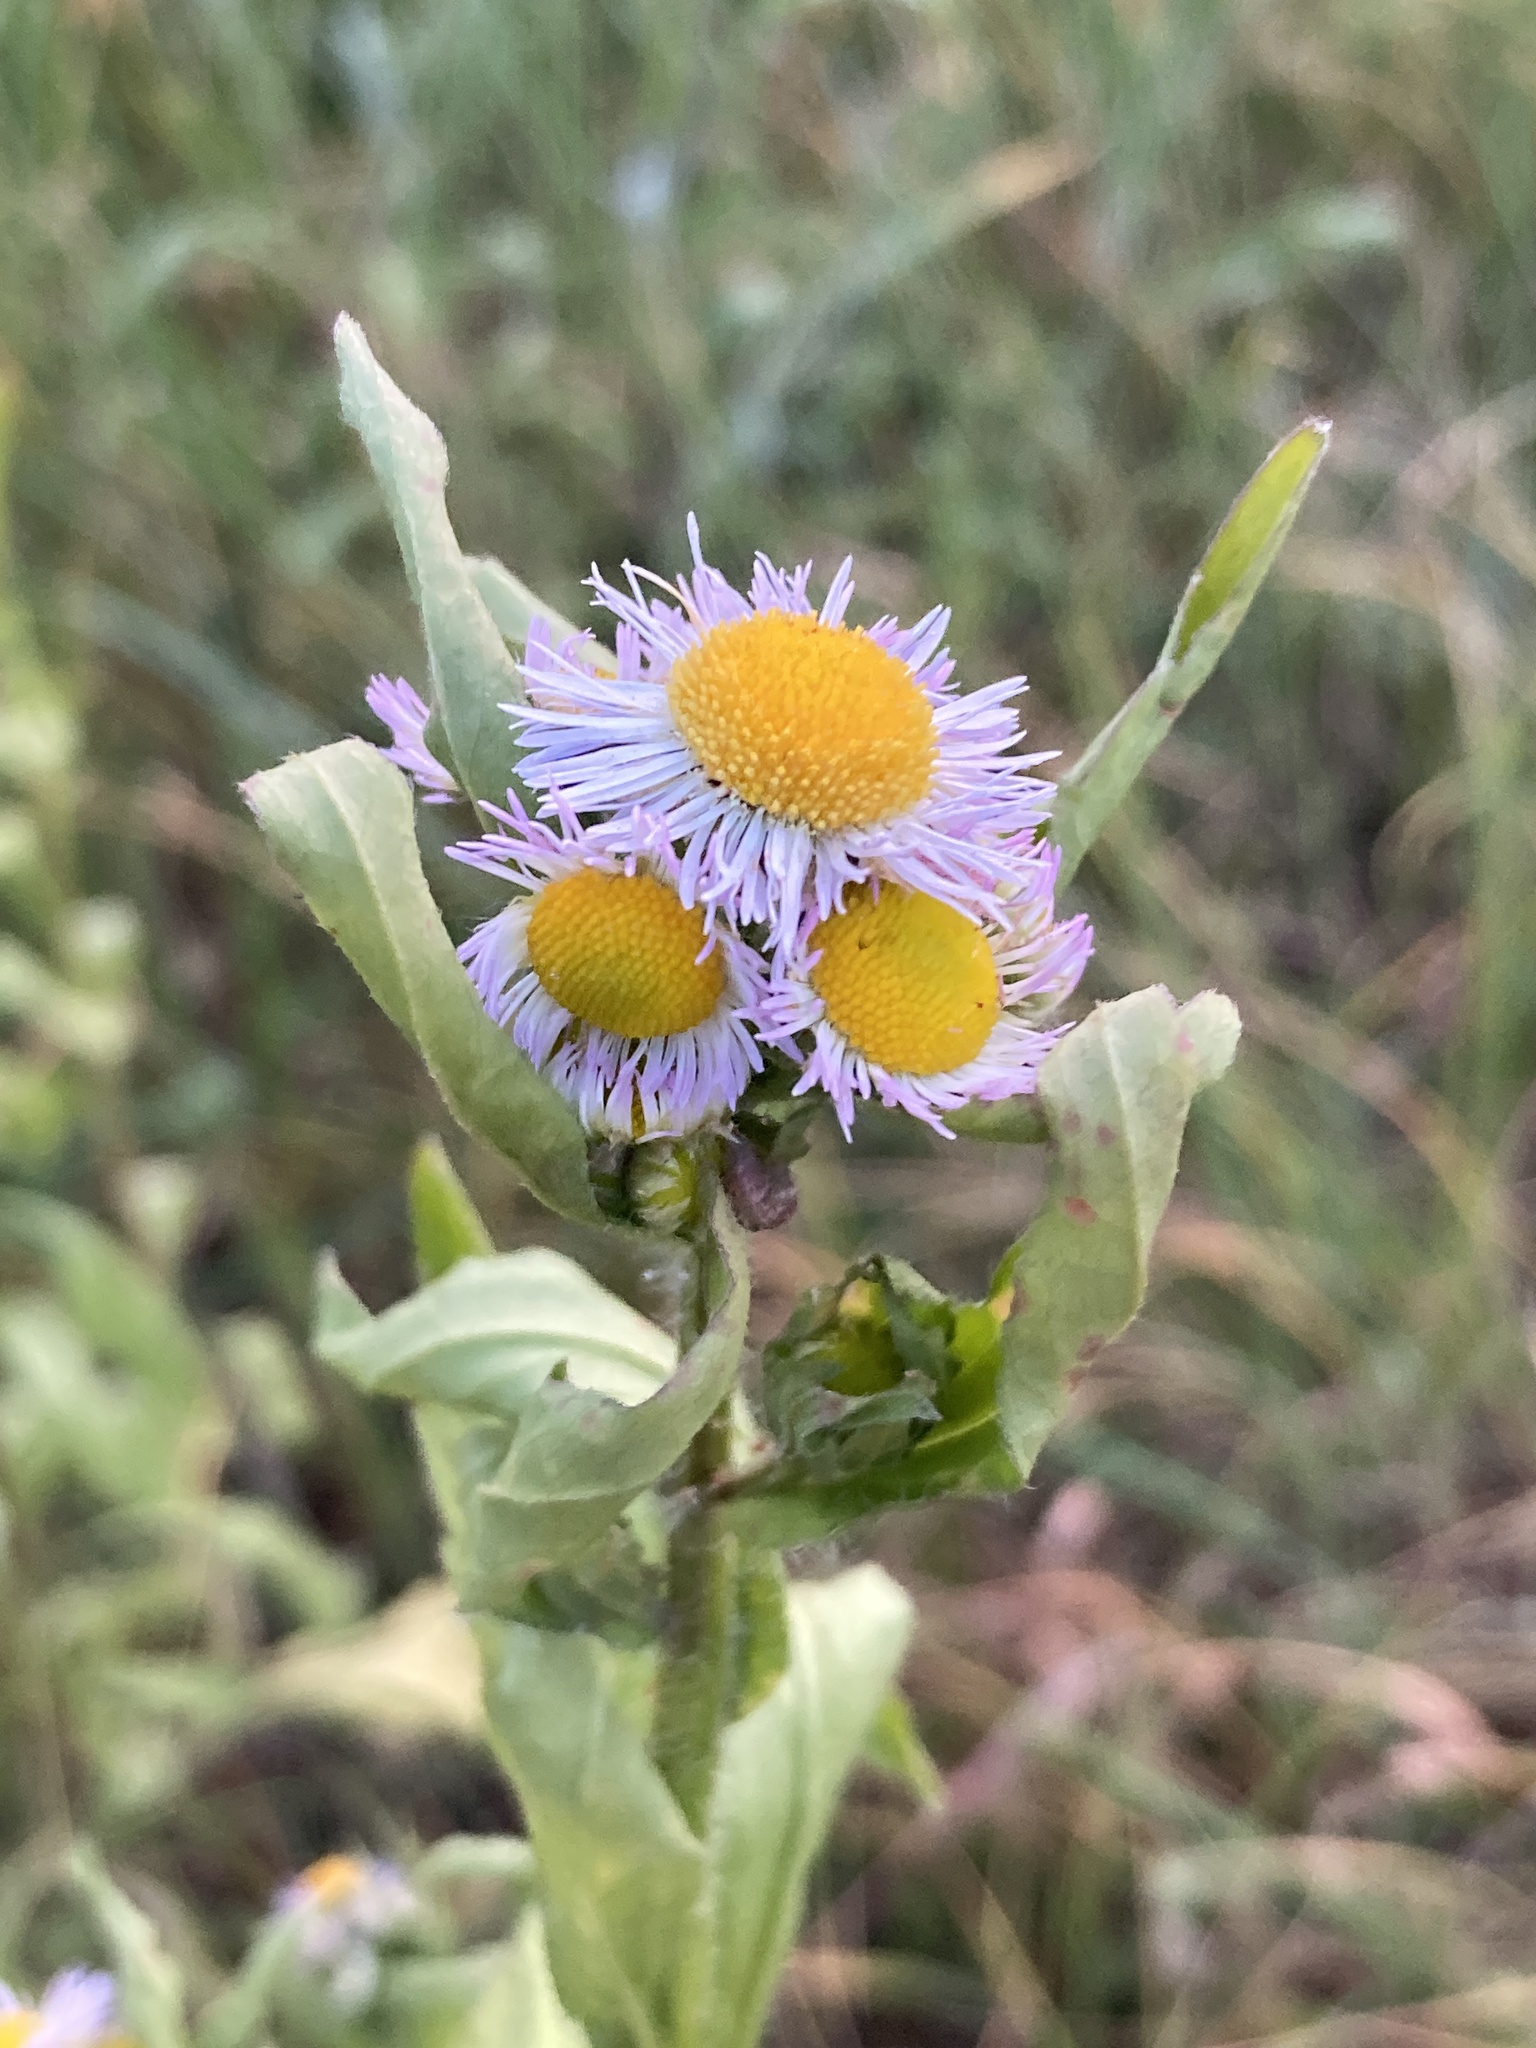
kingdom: Plantae
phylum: Tracheophyta
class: Magnoliopsida
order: Asterales
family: Asteraceae
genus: Erigeron
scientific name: Erigeron annuus
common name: Tall fleabane
